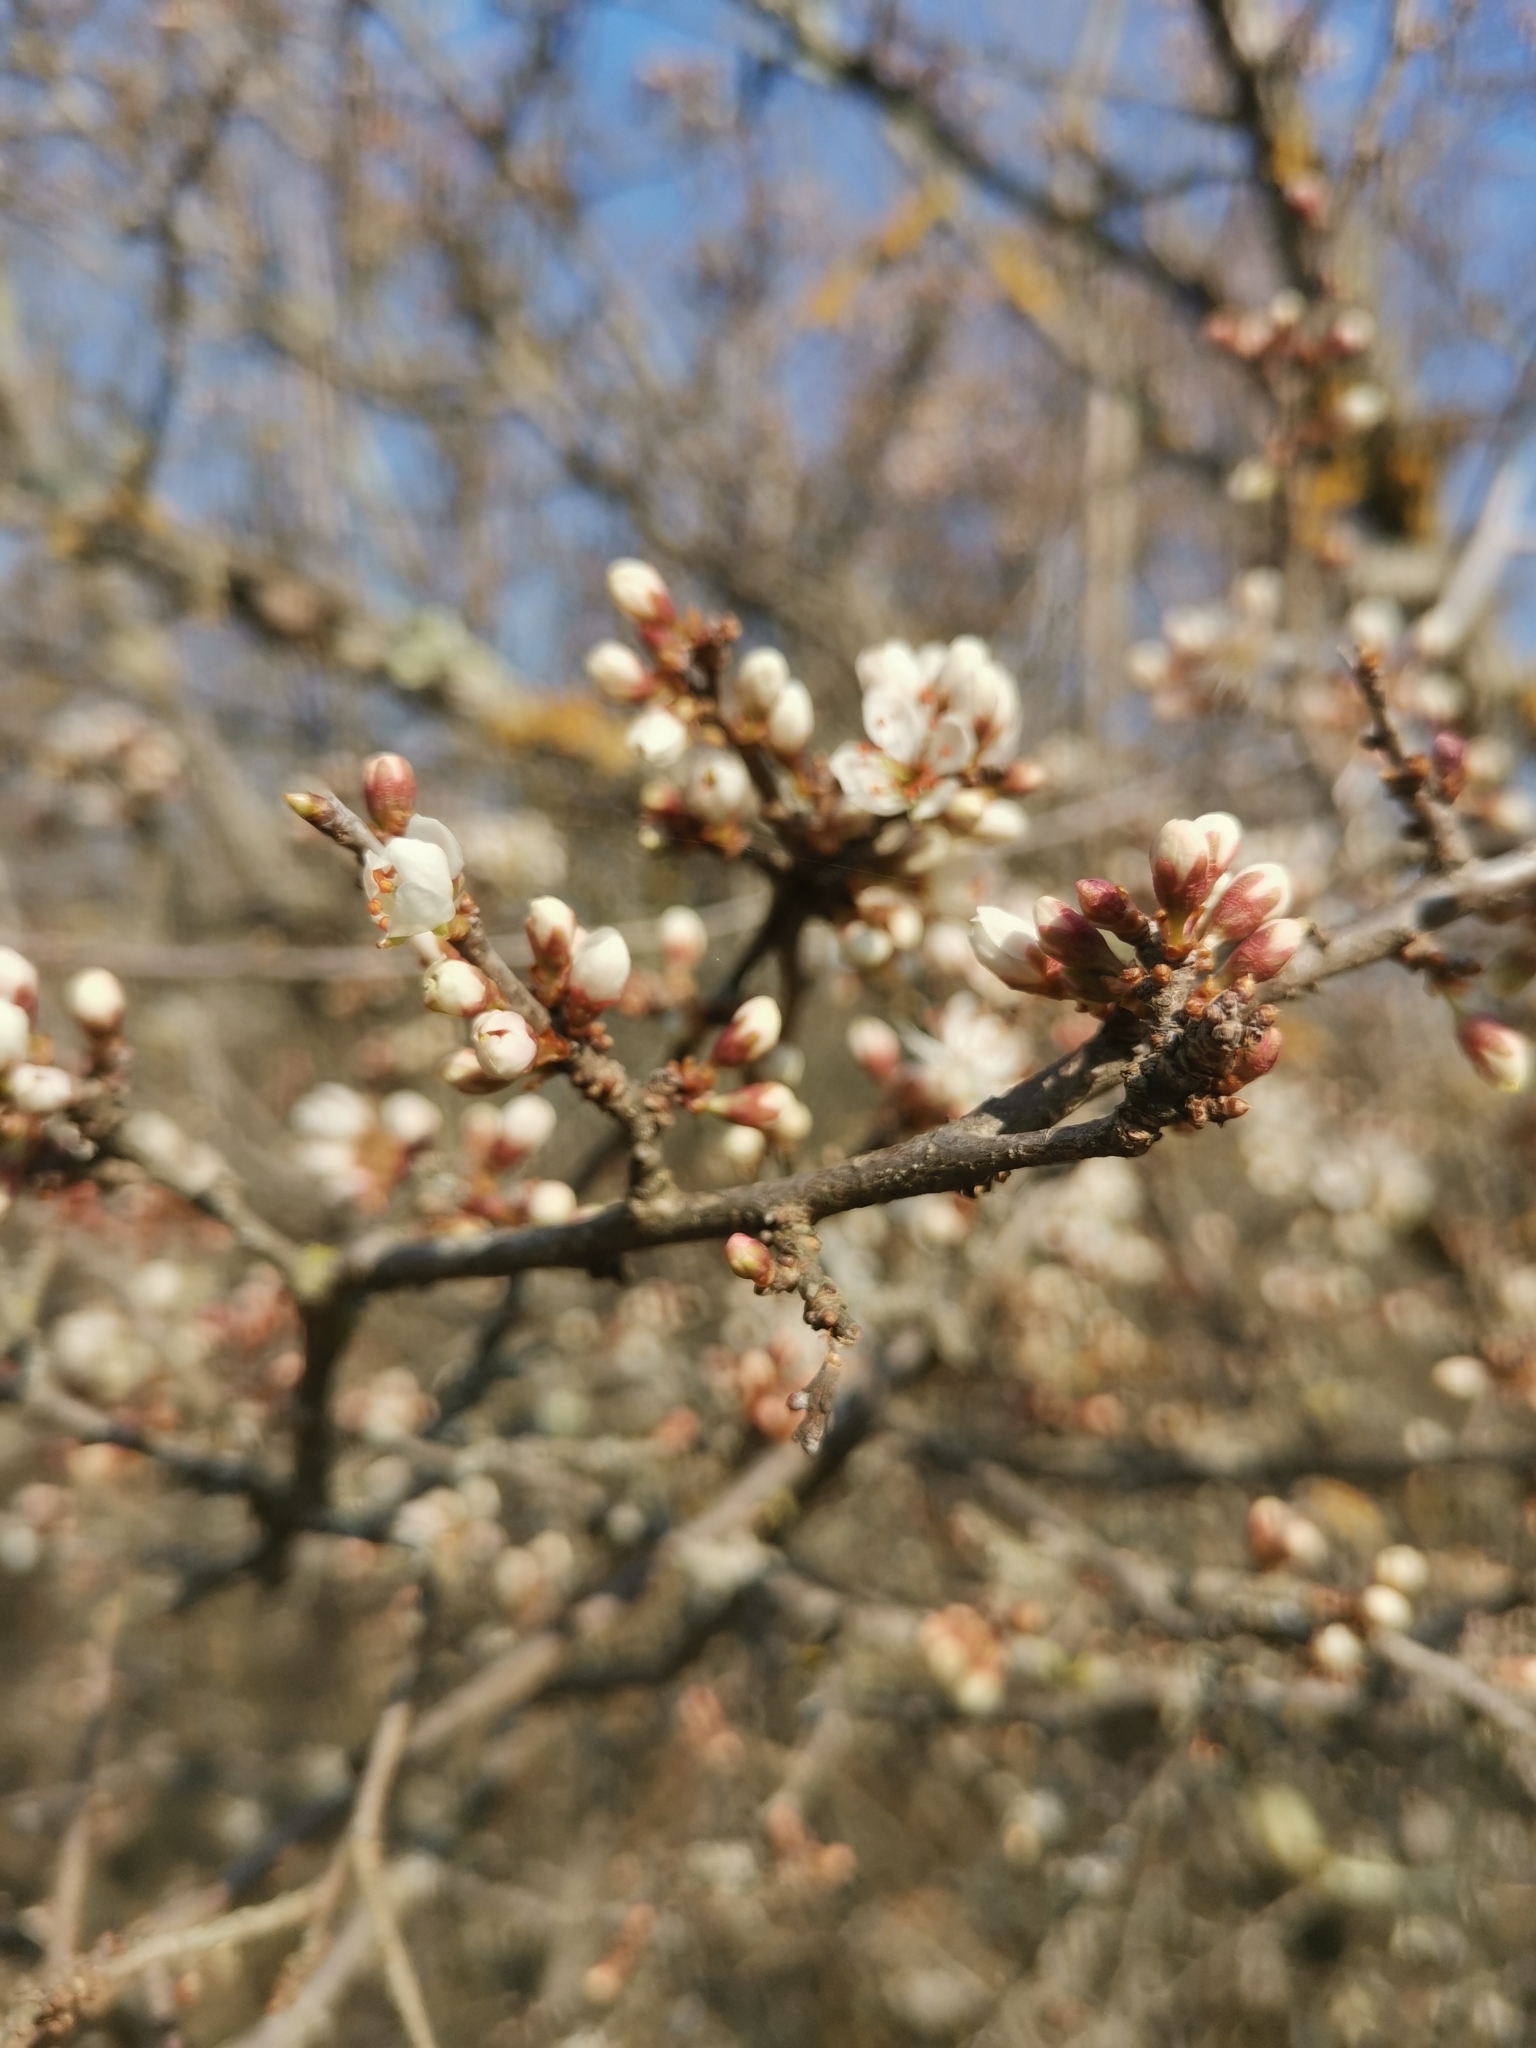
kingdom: Plantae
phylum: Tracheophyta
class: Magnoliopsida
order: Rosales
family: Rosaceae
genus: Prunus
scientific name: Prunus spinosa
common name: Blackthorn
